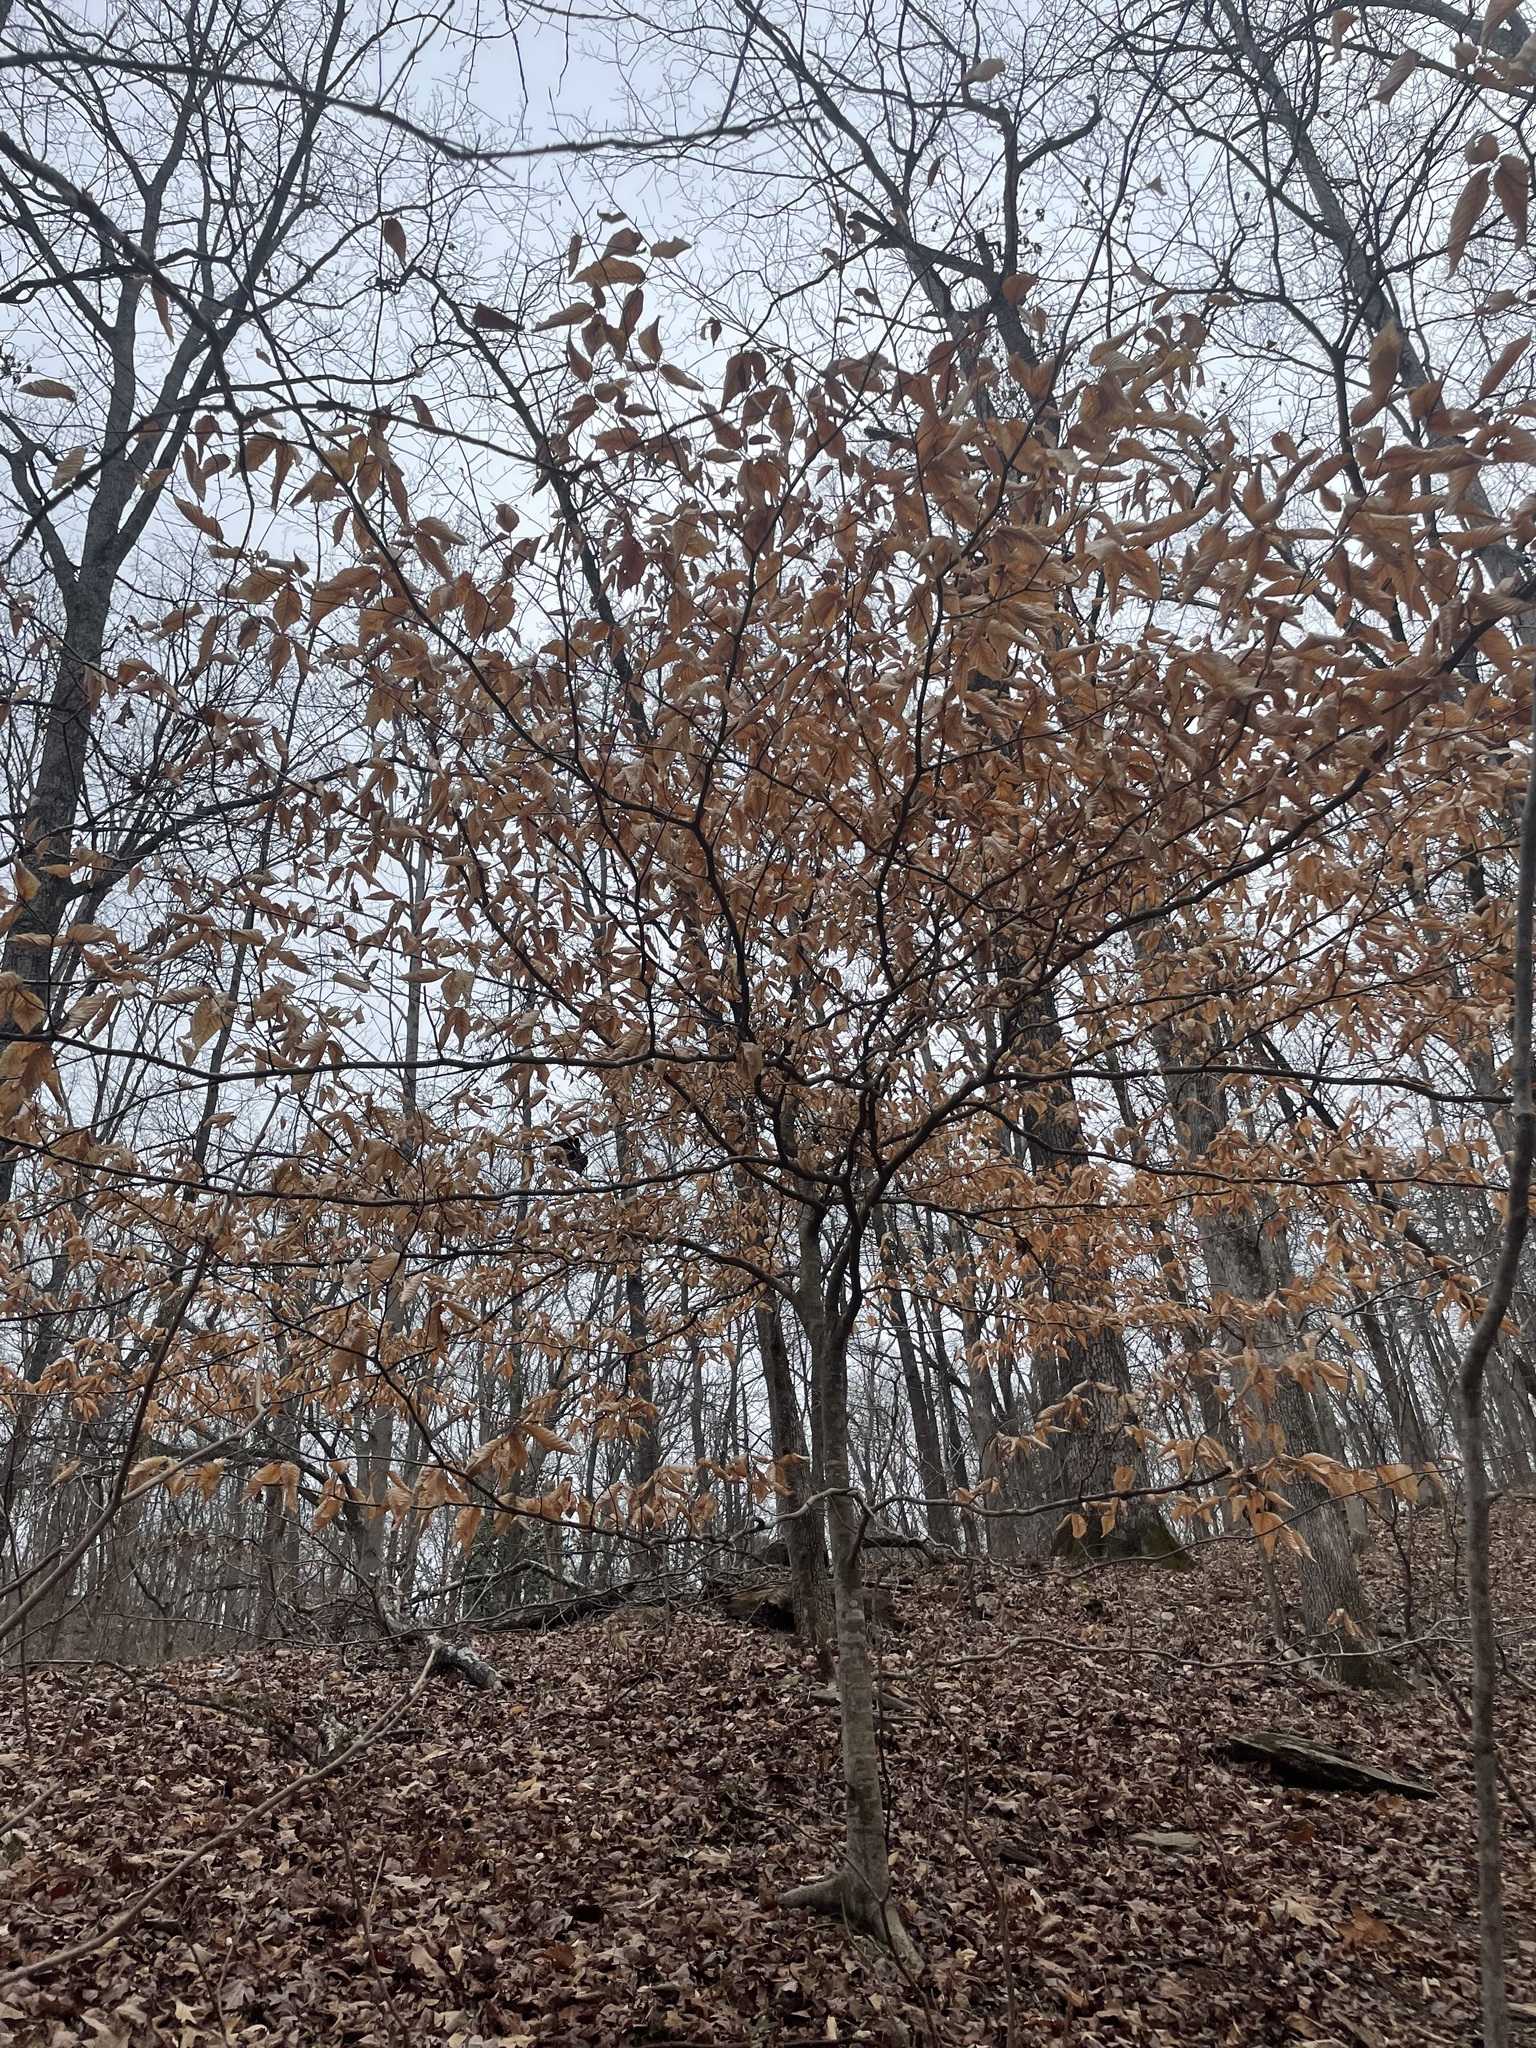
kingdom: Plantae
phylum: Tracheophyta
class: Magnoliopsida
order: Fagales
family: Fagaceae
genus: Fagus
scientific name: Fagus grandifolia
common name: American beech
